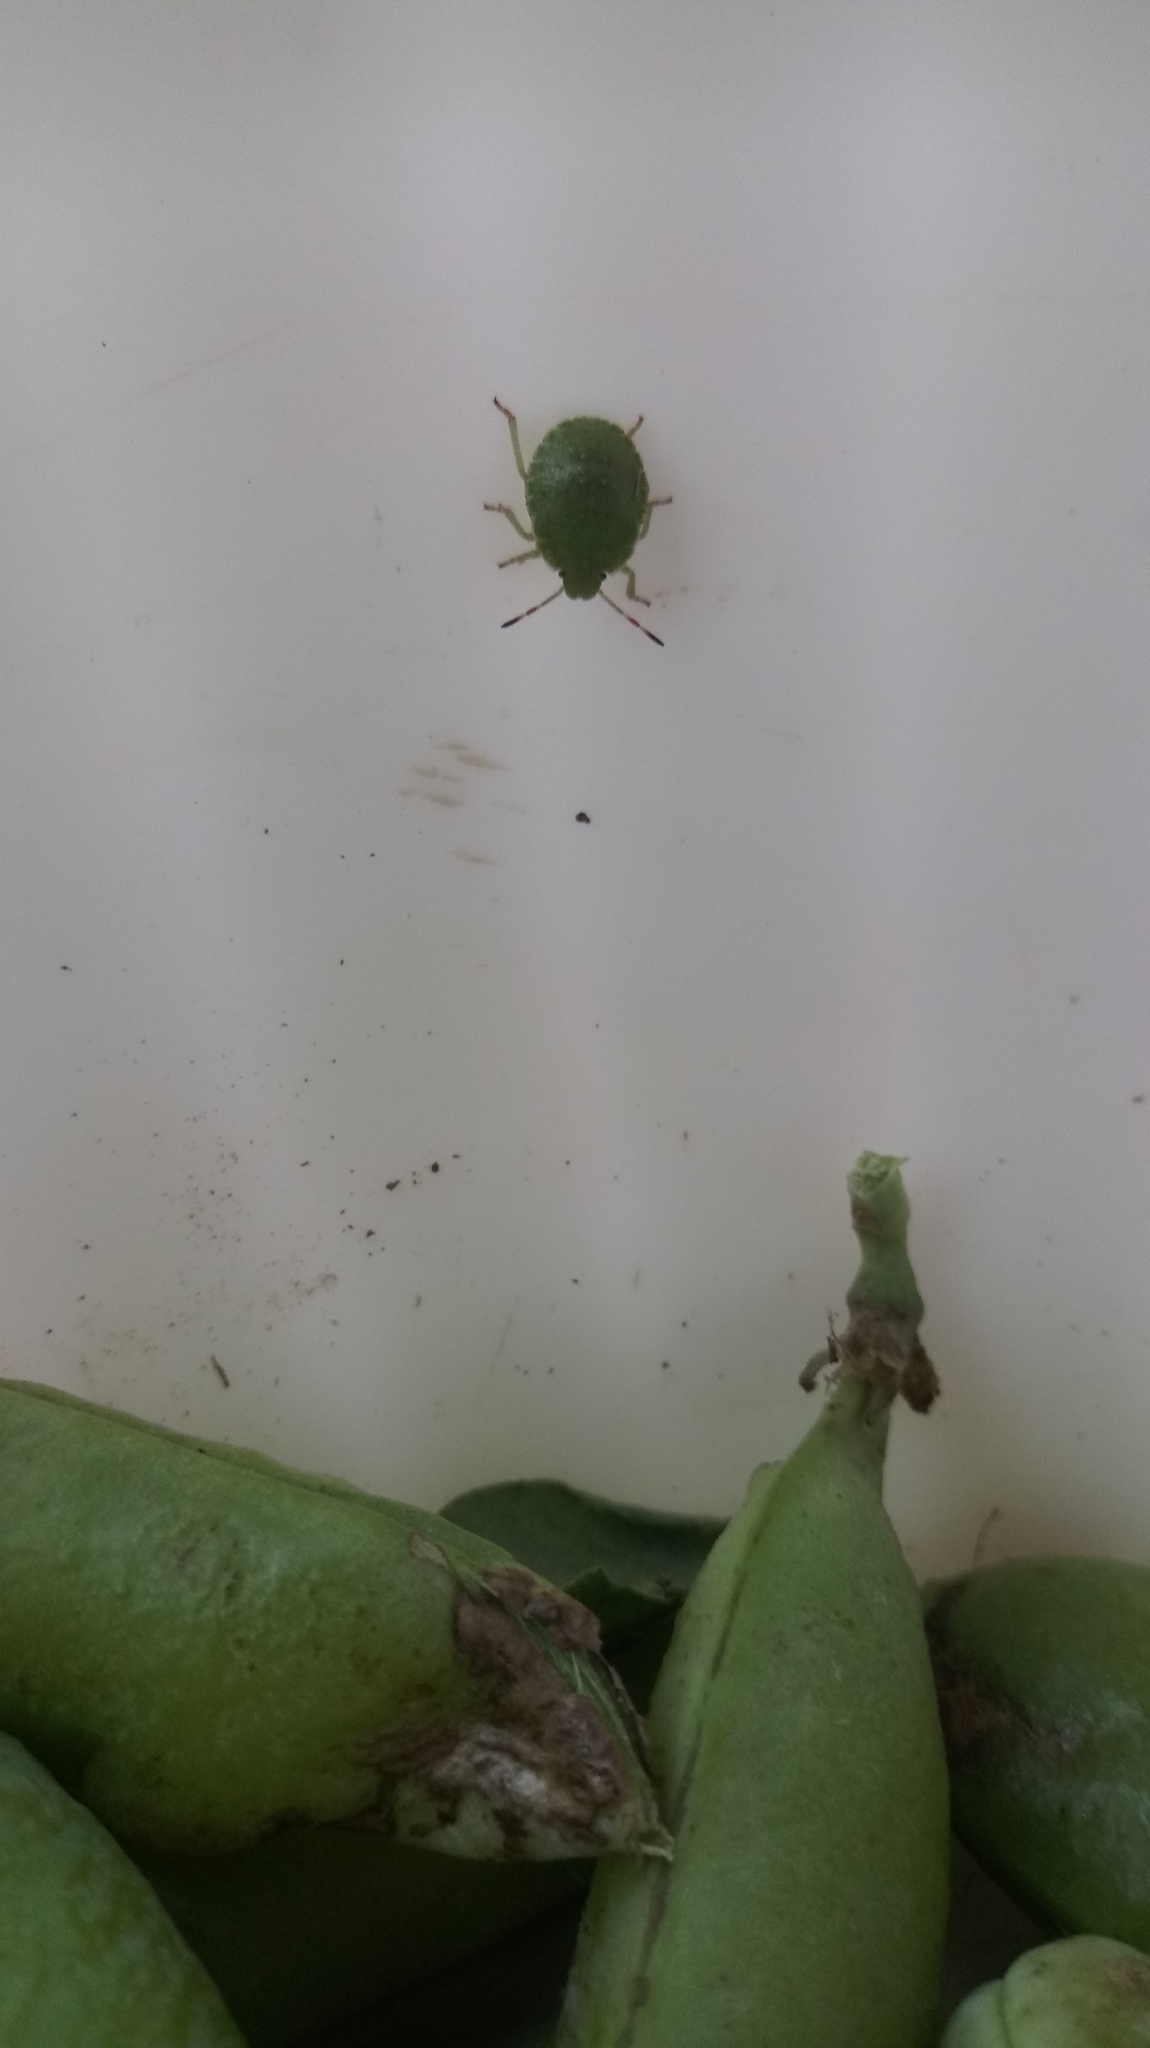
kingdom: Animalia
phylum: Arthropoda
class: Insecta
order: Hemiptera
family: Pentatomidae
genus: Palomena
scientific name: Palomena prasina
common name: Green shieldbug
